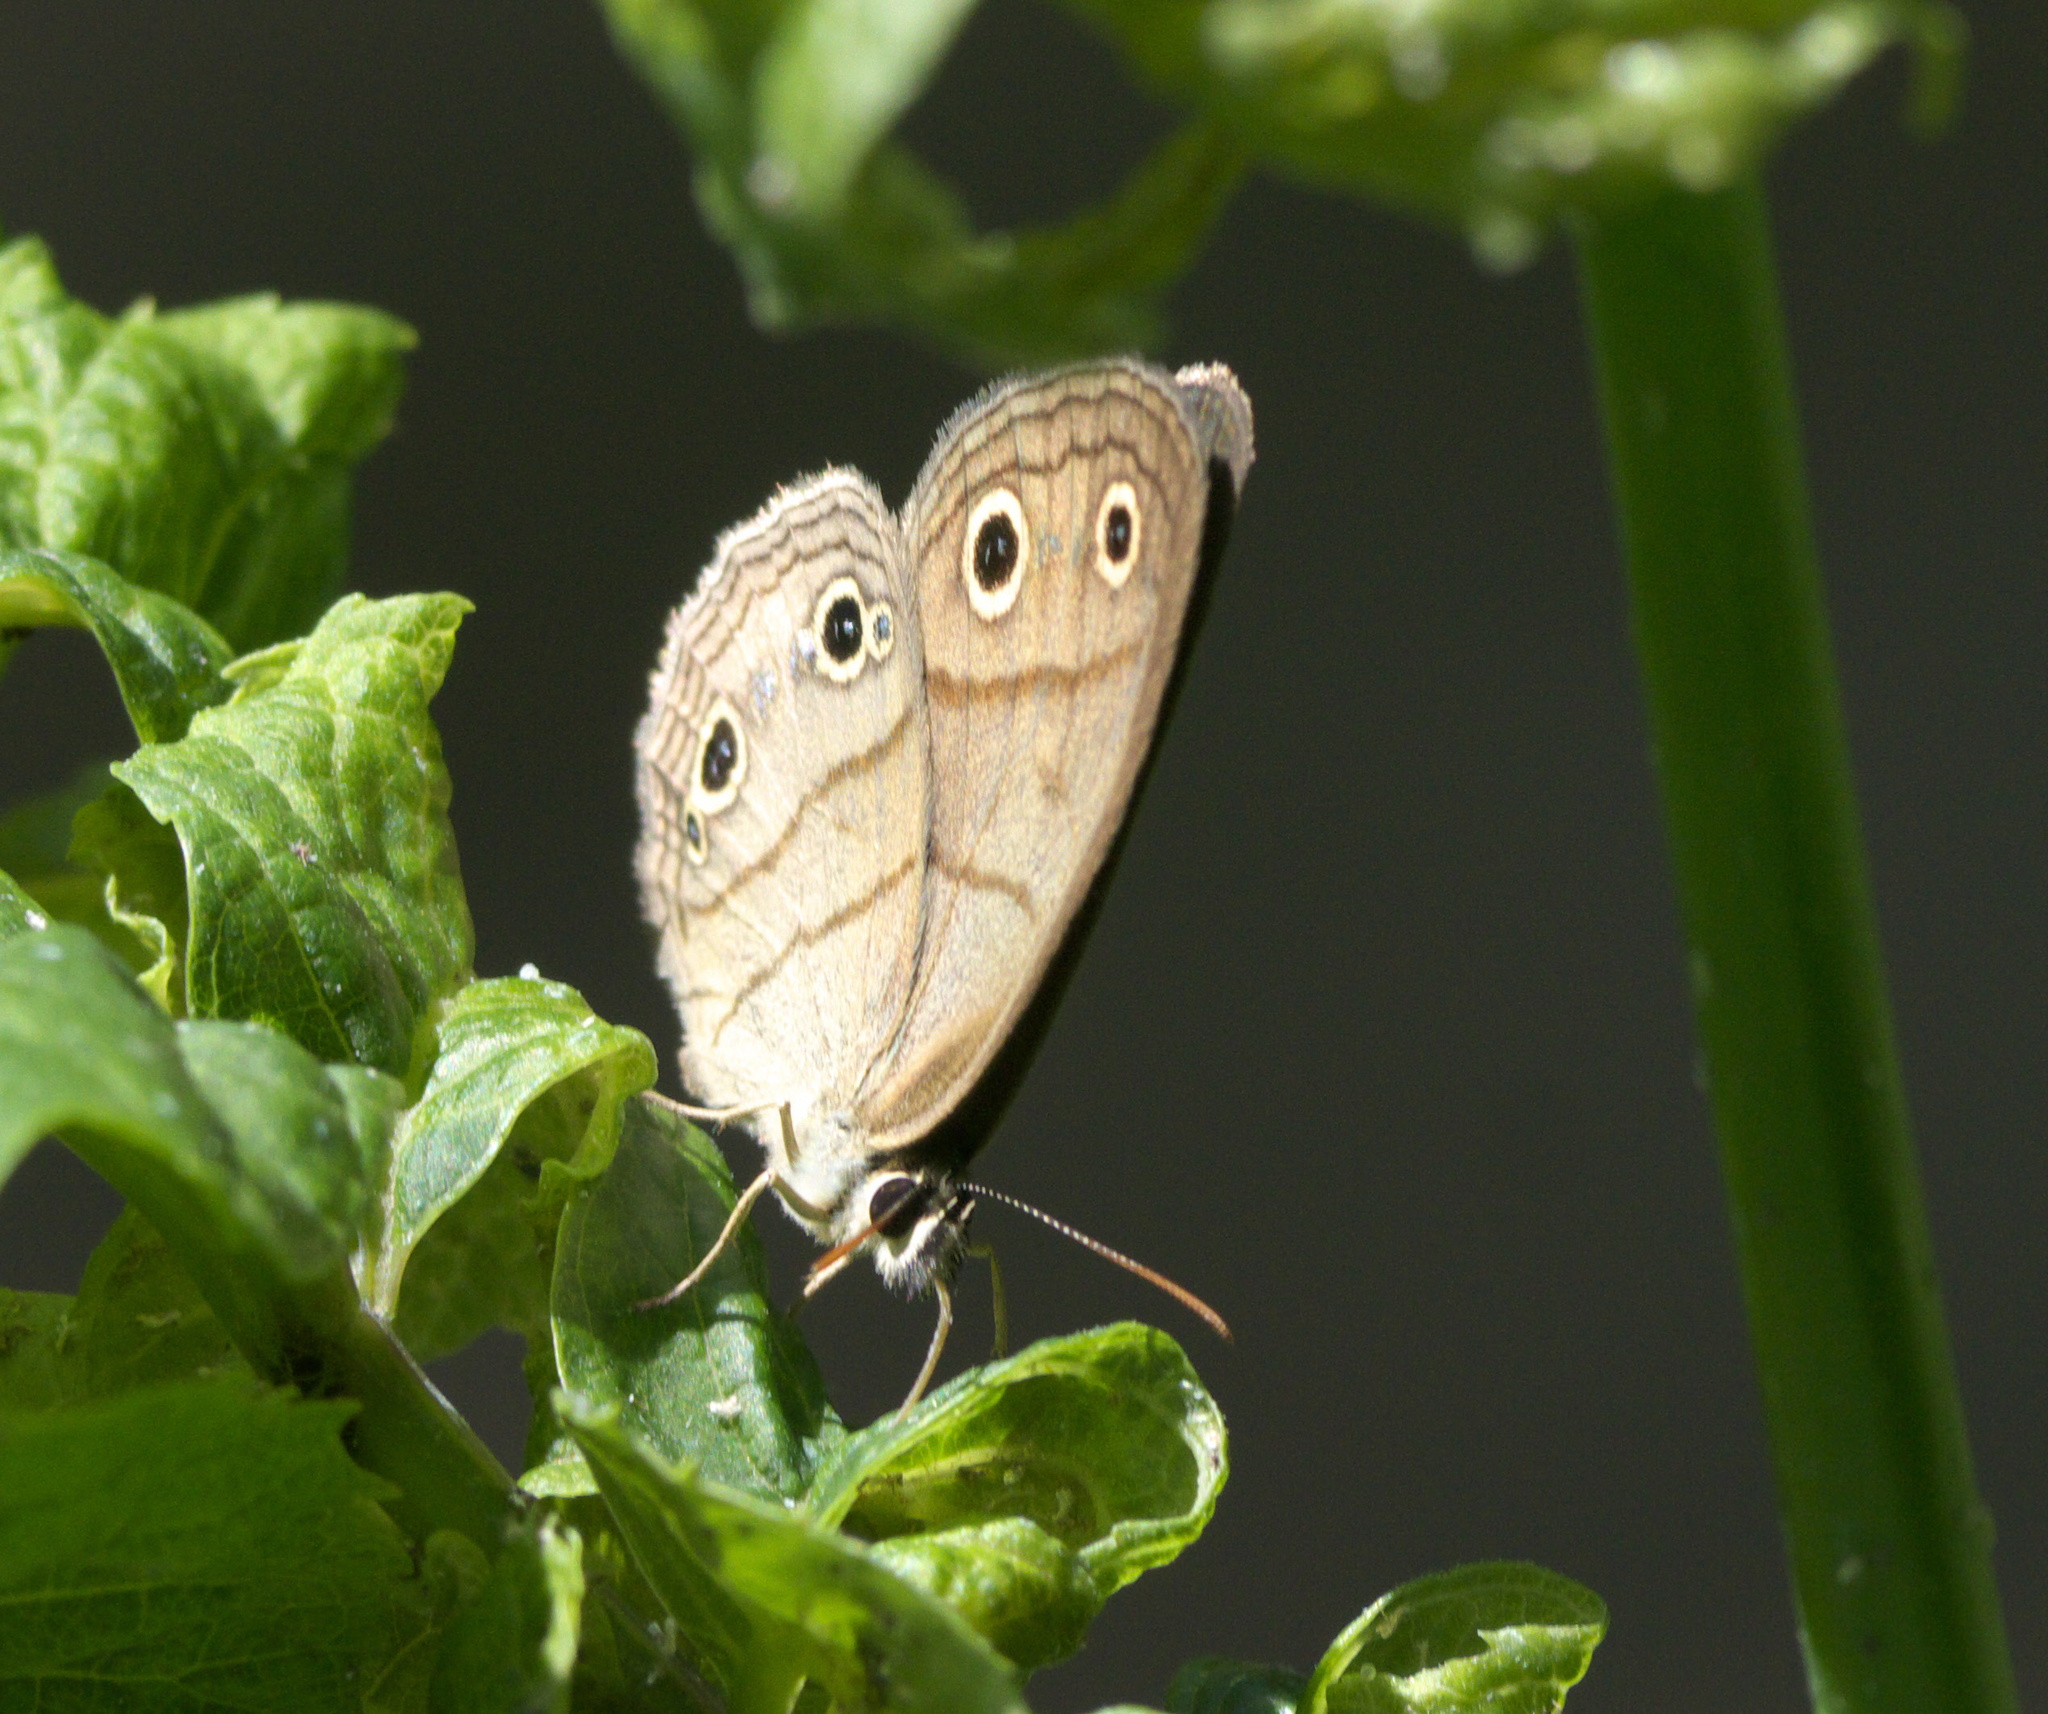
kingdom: Animalia
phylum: Arthropoda
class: Insecta
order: Lepidoptera
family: Nymphalidae
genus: Euptychia
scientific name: Euptychia cymela
